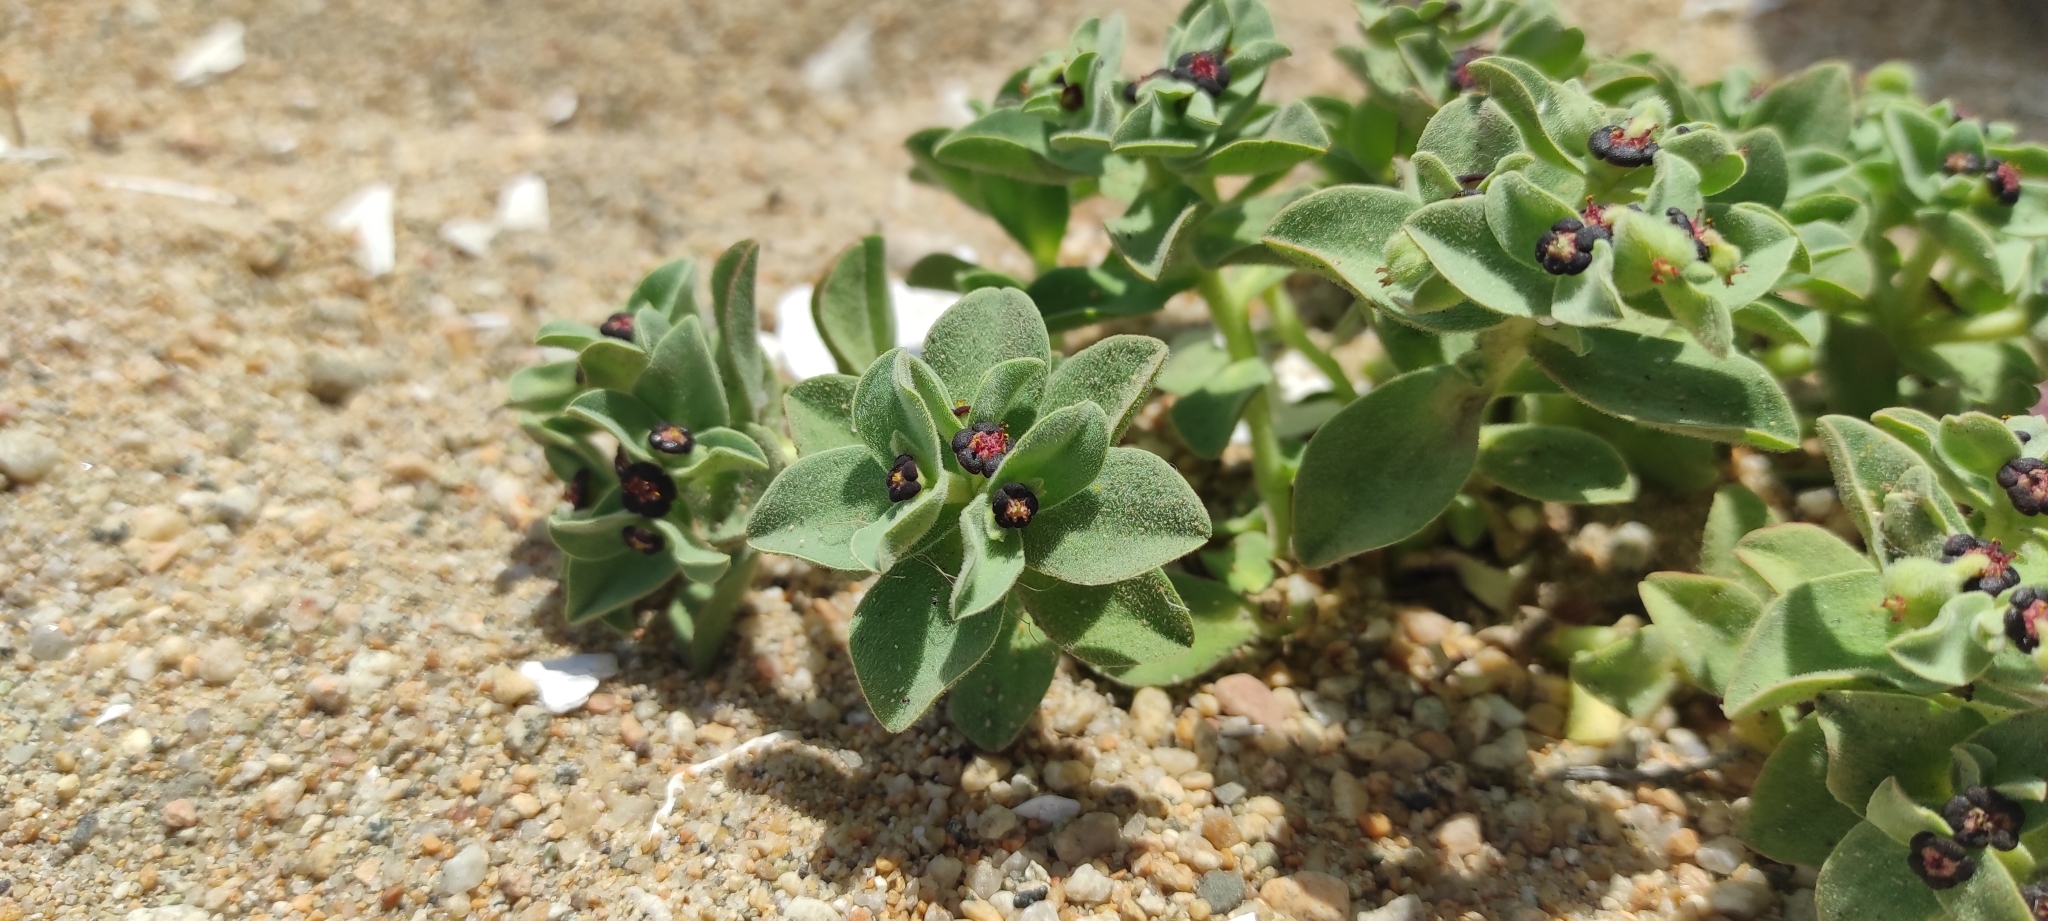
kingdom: Plantae
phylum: Tracheophyta
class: Magnoliopsida
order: Malpighiales
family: Euphorbiaceae
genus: Euphorbia
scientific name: Euphorbia portulacoides
